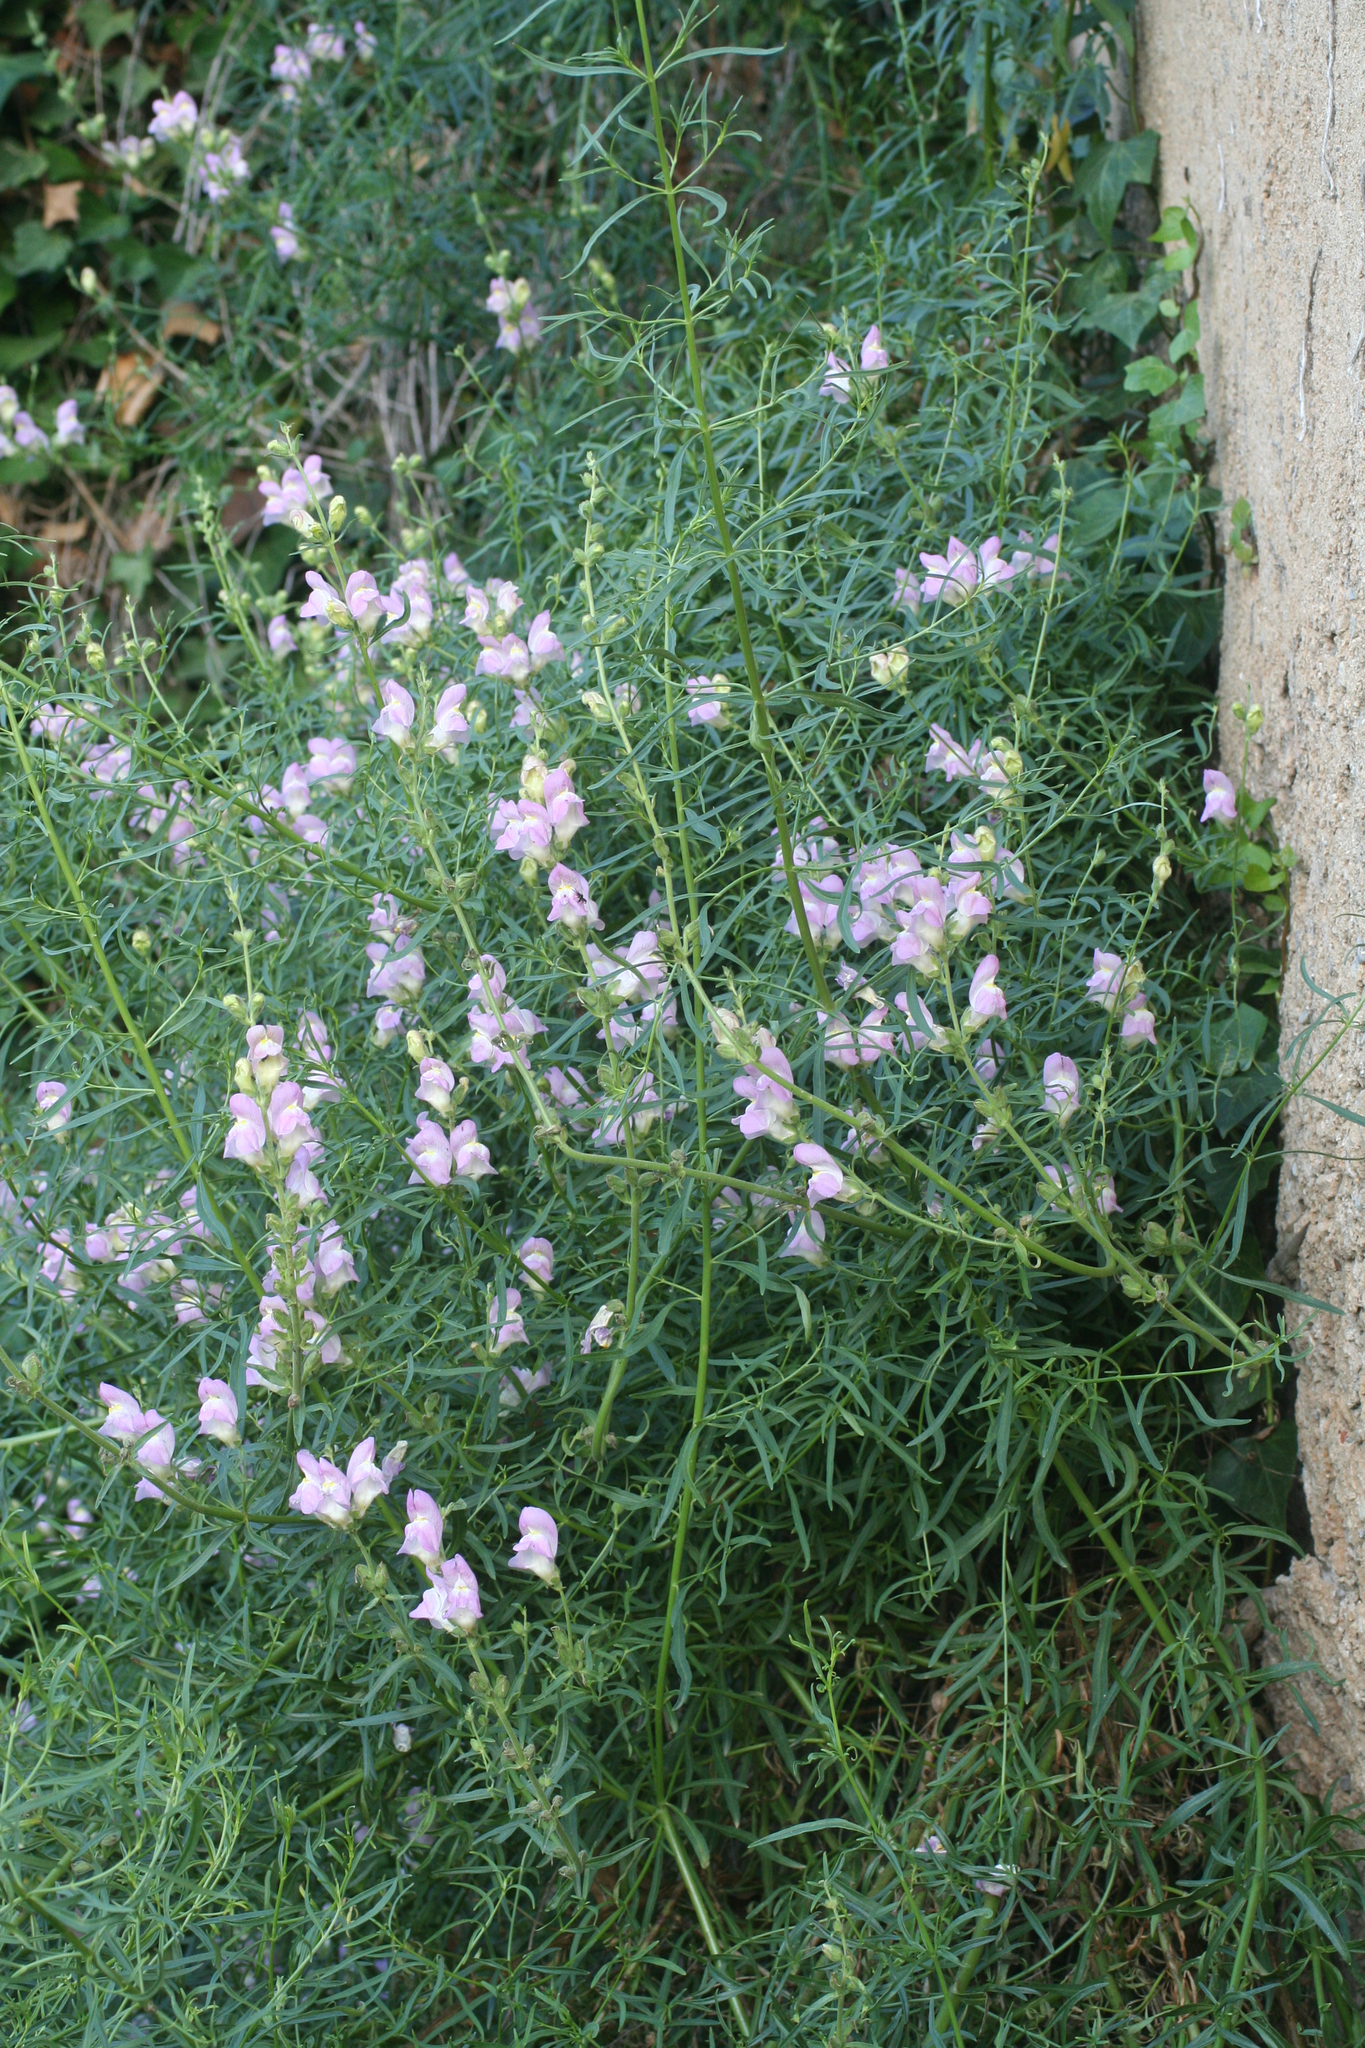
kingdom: Plantae
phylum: Tracheophyta
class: Magnoliopsida
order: Lamiales
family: Plantaginaceae
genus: Antirrhinum
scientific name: Antirrhinum tortuosum
